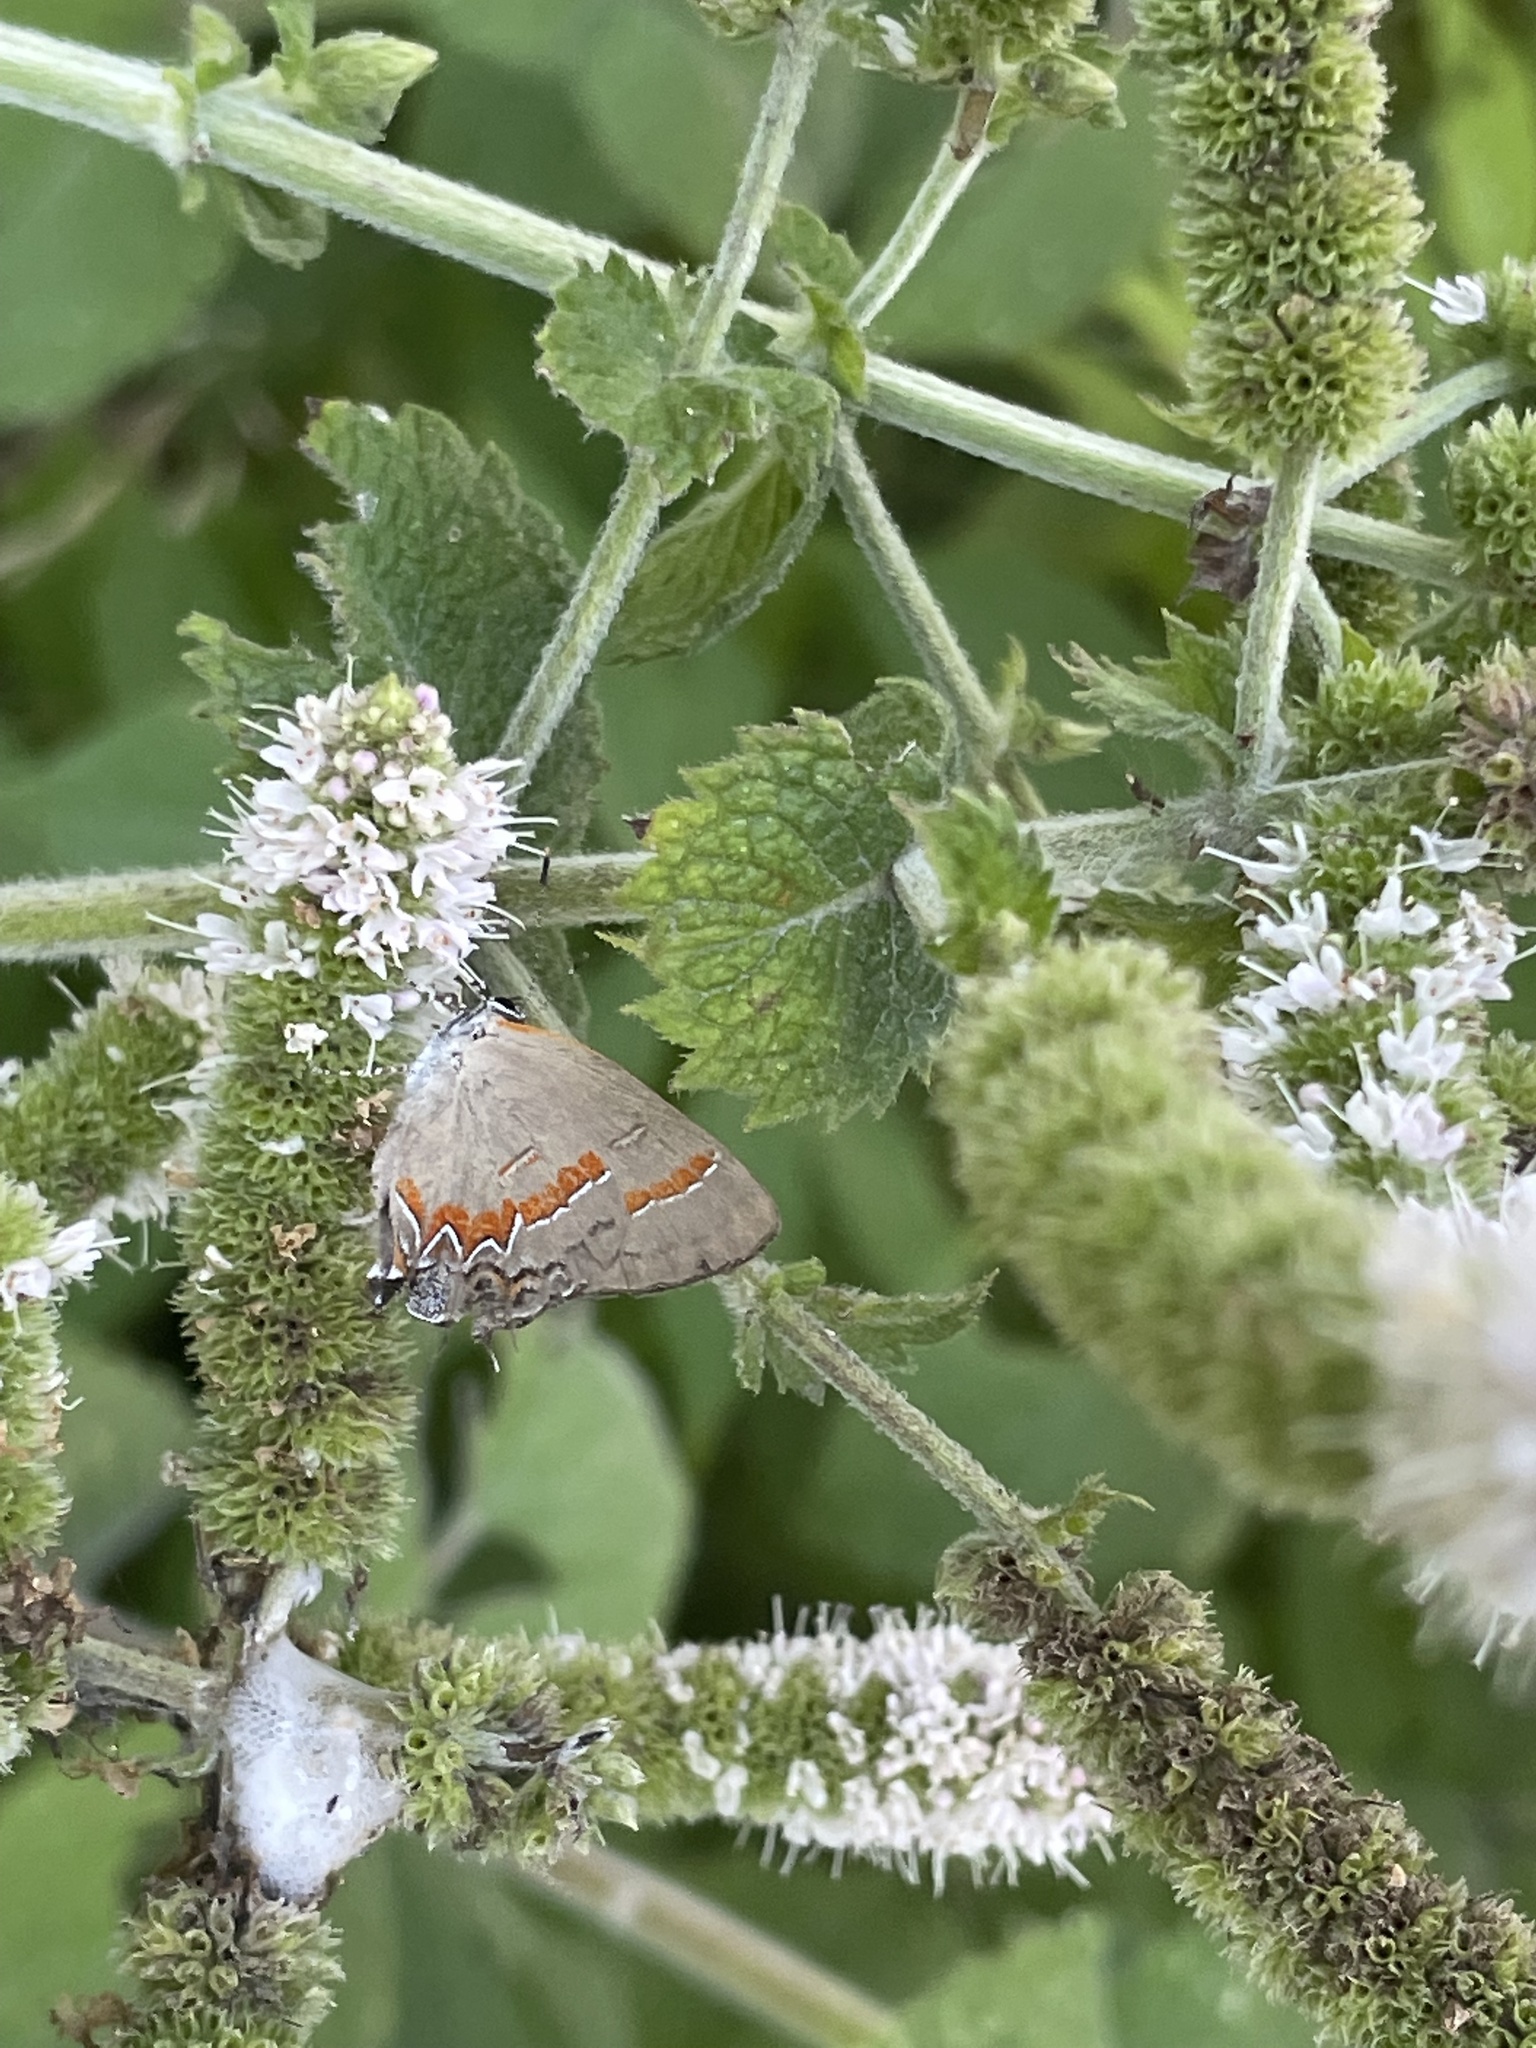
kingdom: Animalia
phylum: Arthropoda
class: Insecta
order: Lepidoptera
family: Lycaenidae
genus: Calycopis
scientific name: Calycopis cecrops
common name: Red-banded hairstreak
